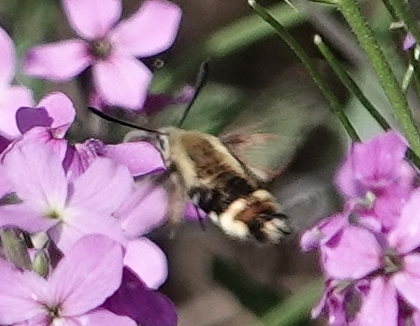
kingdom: Animalia
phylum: Arthropoda
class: Insecta
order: Lepidoptera
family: Sphingidae
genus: Hemaris
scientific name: Hemaris diffinis
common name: Bumblebee moth
